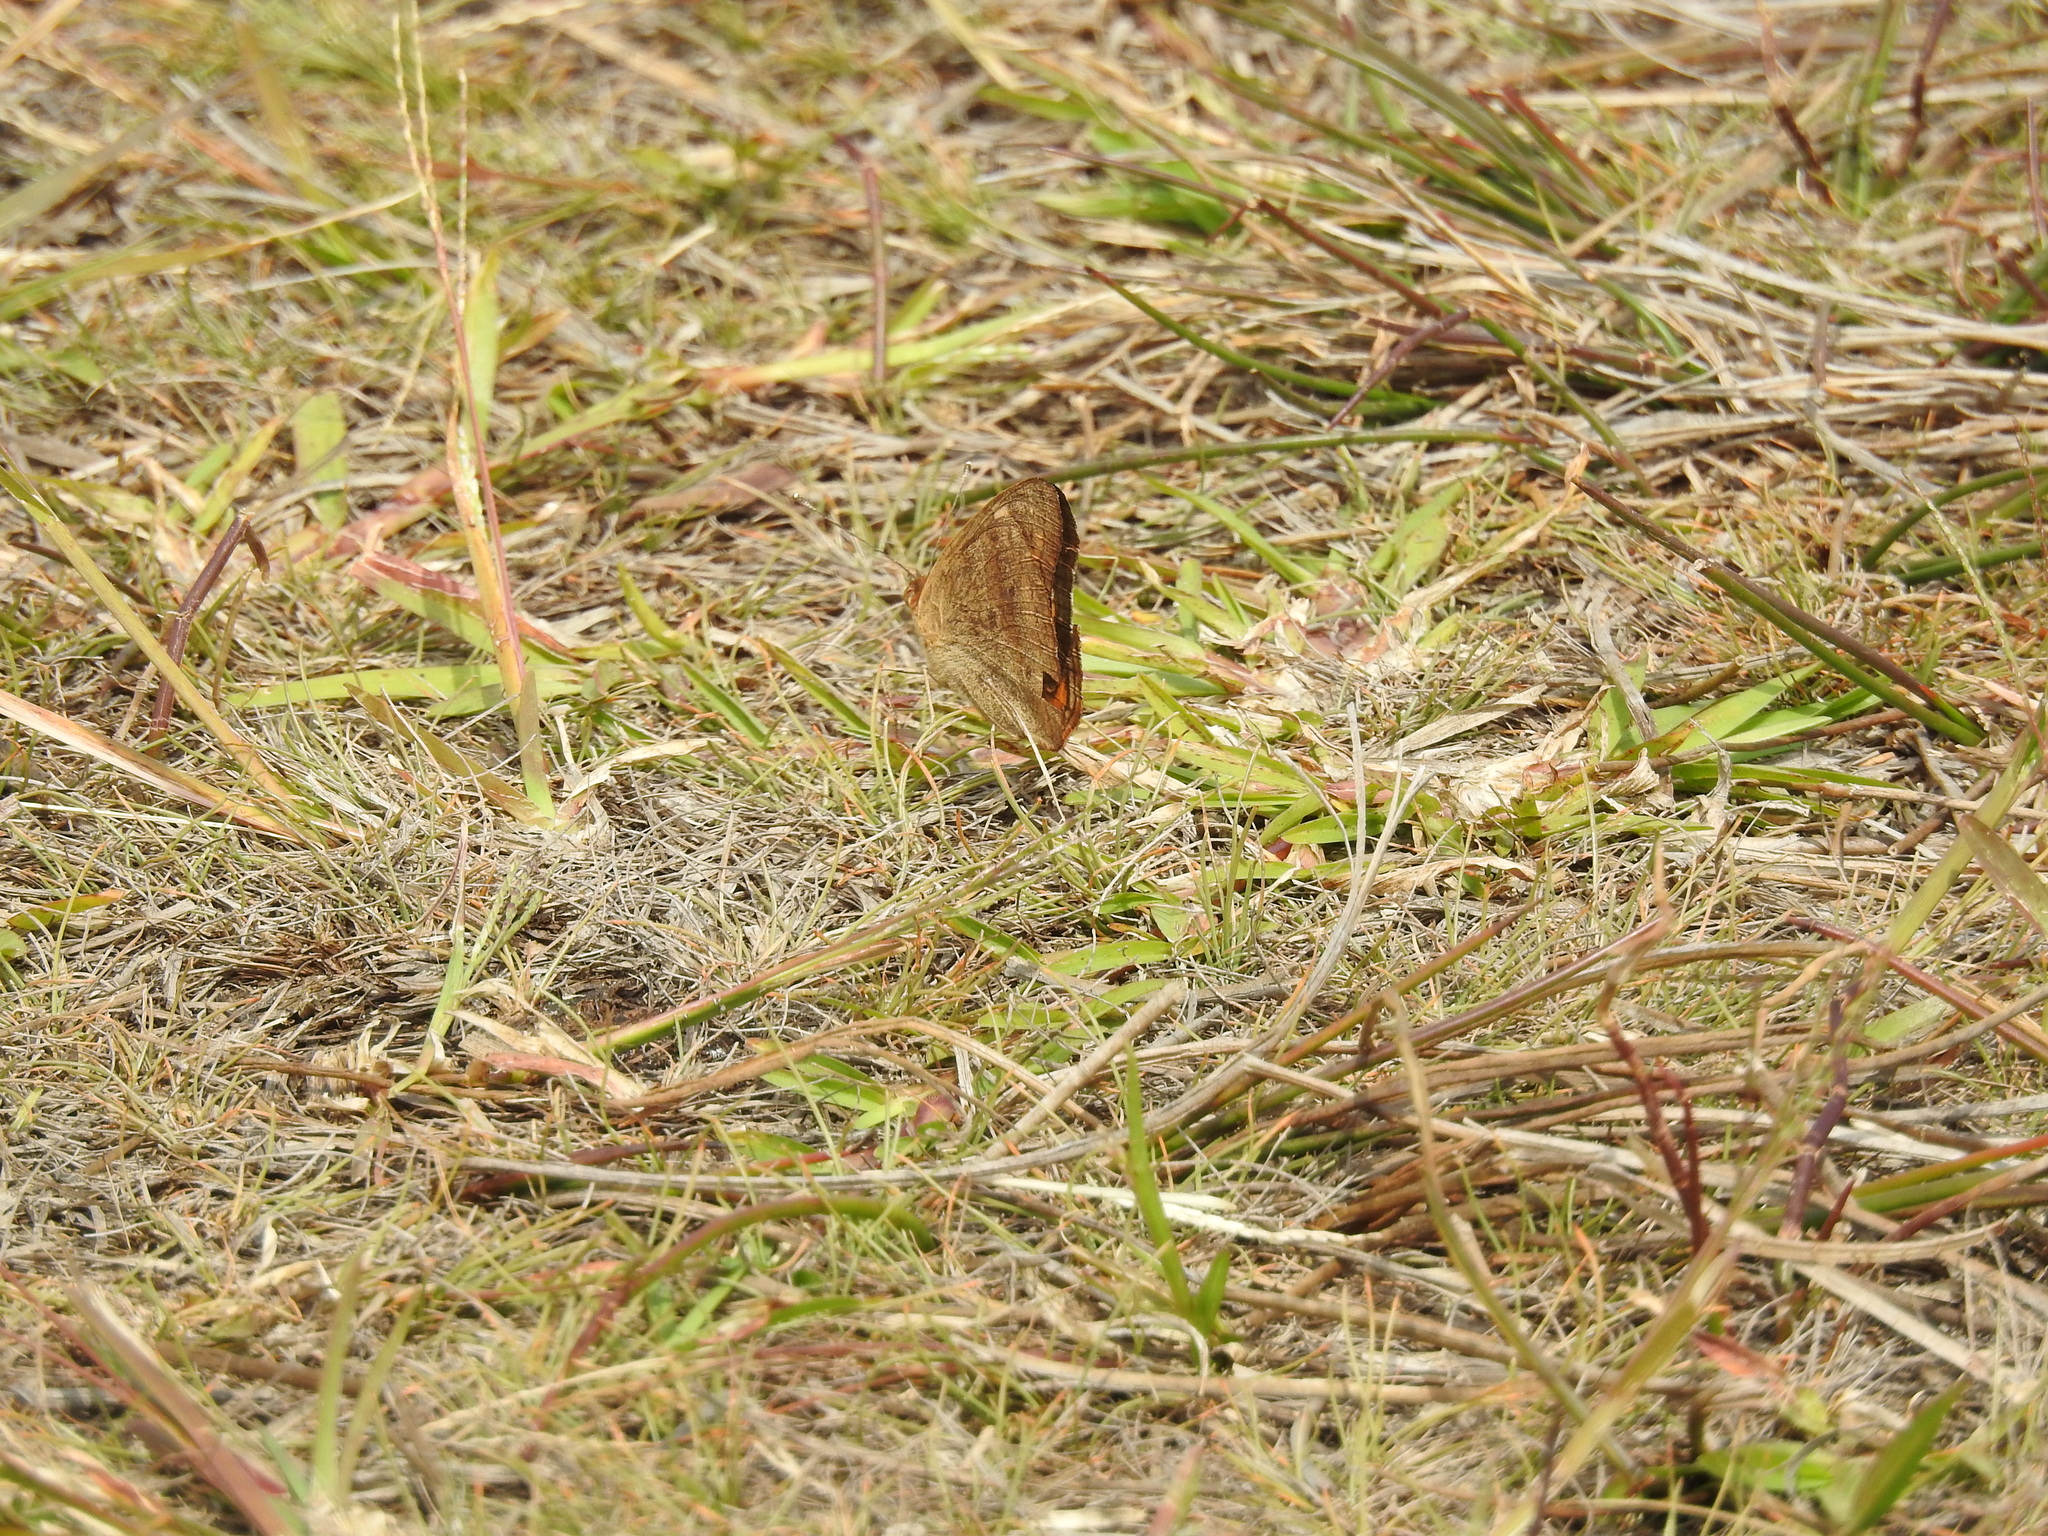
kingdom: Animalia
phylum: Arthropoda
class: Insecta
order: Lepidoptera
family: Nymphalidae
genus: Junonia
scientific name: Junonia neildi
